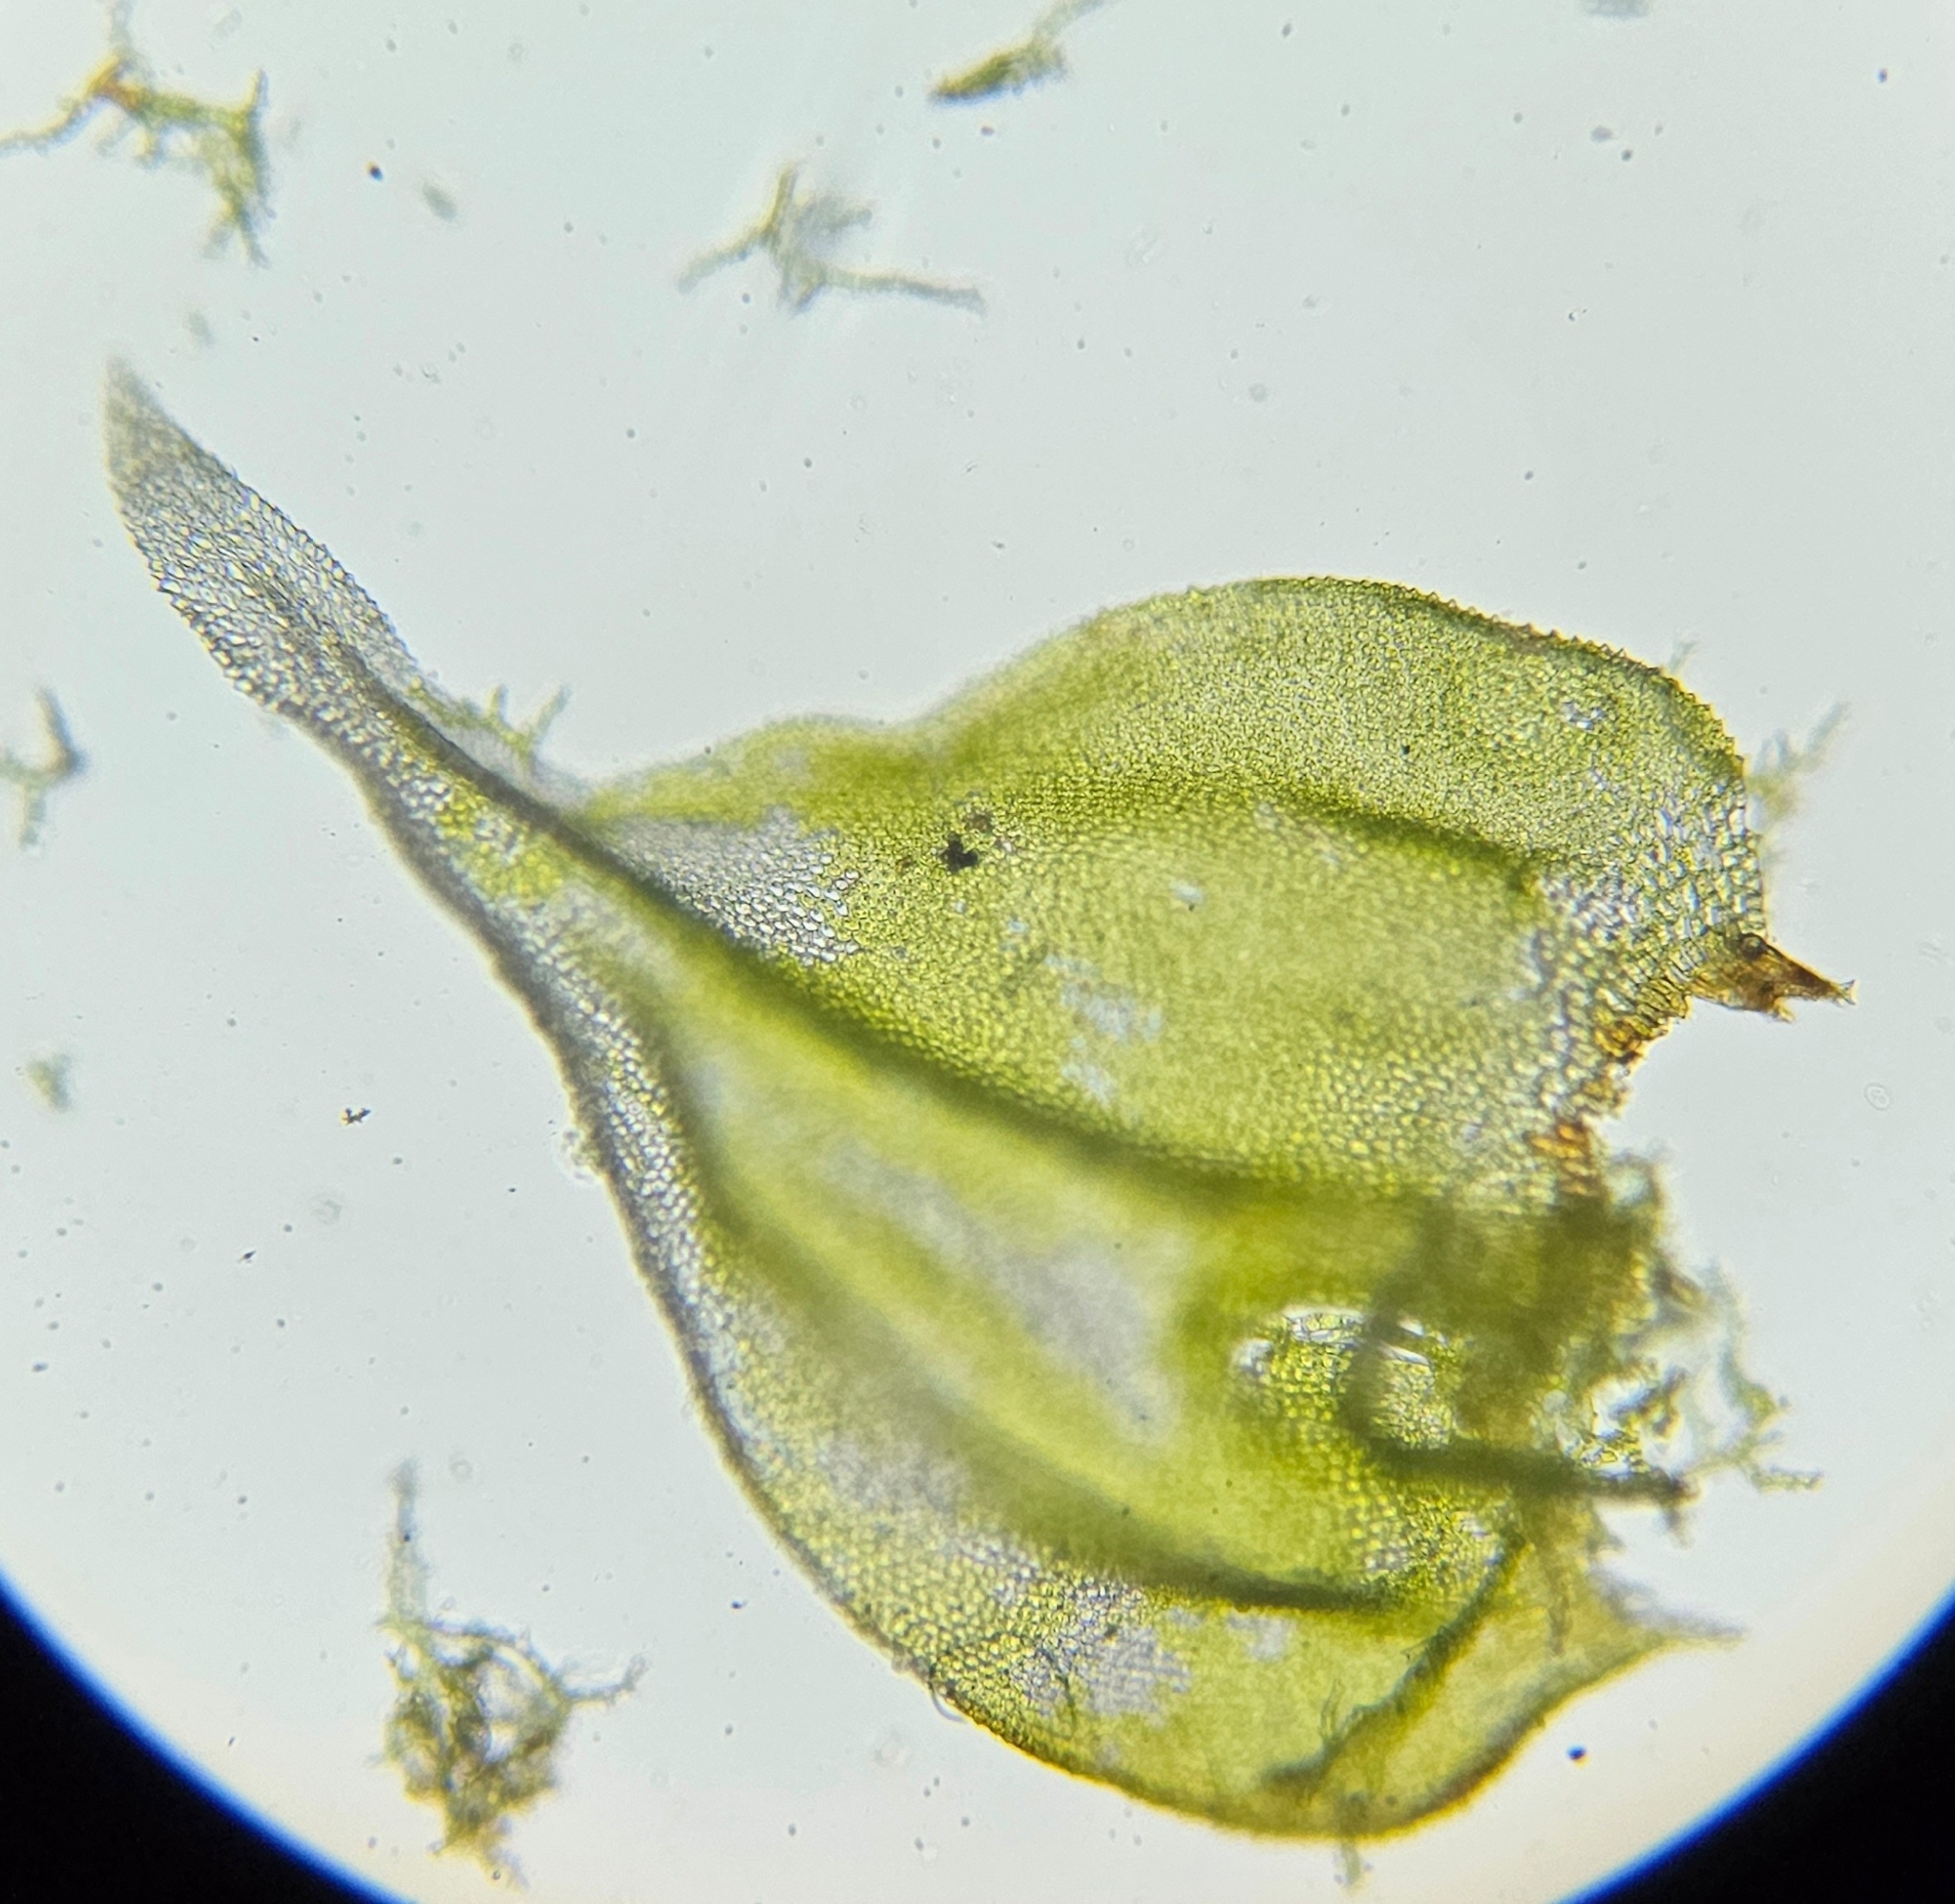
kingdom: Plantae
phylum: Bryophyta
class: Bryopsida
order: Hypnales
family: Thuidiaceae
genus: Thuidium
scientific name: Thuidium delicatulum
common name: Delicate fern moss
